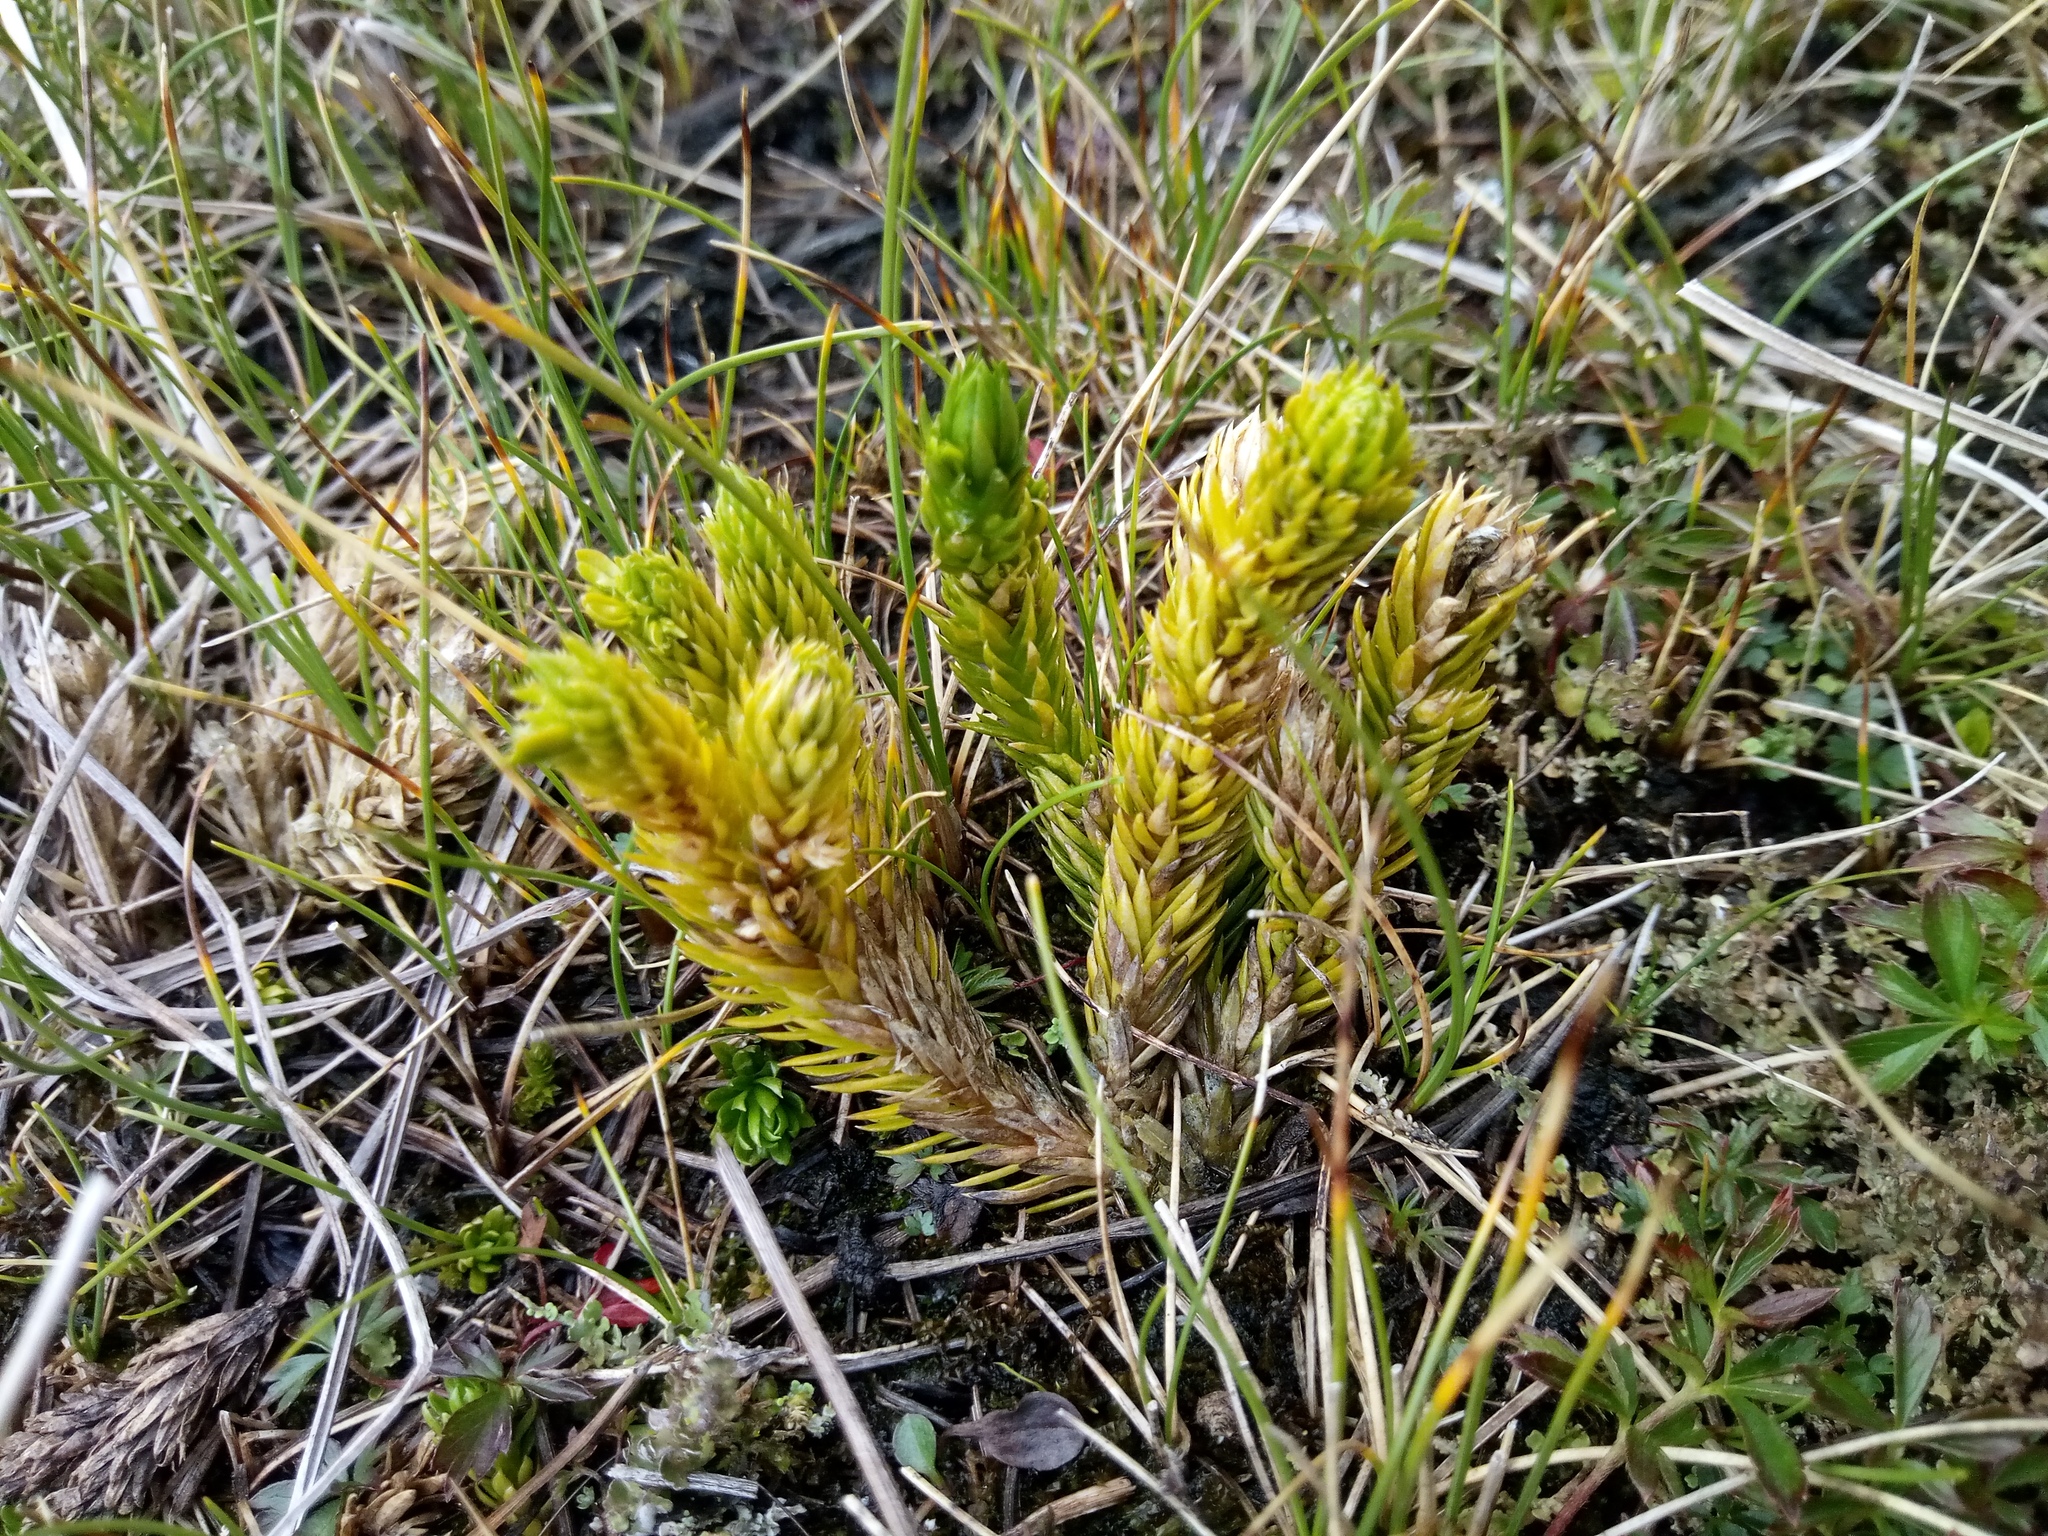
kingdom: Plantae
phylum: Tracheophyta
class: Lycopodiopsida
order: Lycopodiales
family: Lycopodiaceae
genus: Huperzia
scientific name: Huperzia selago
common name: Northern firmoss
